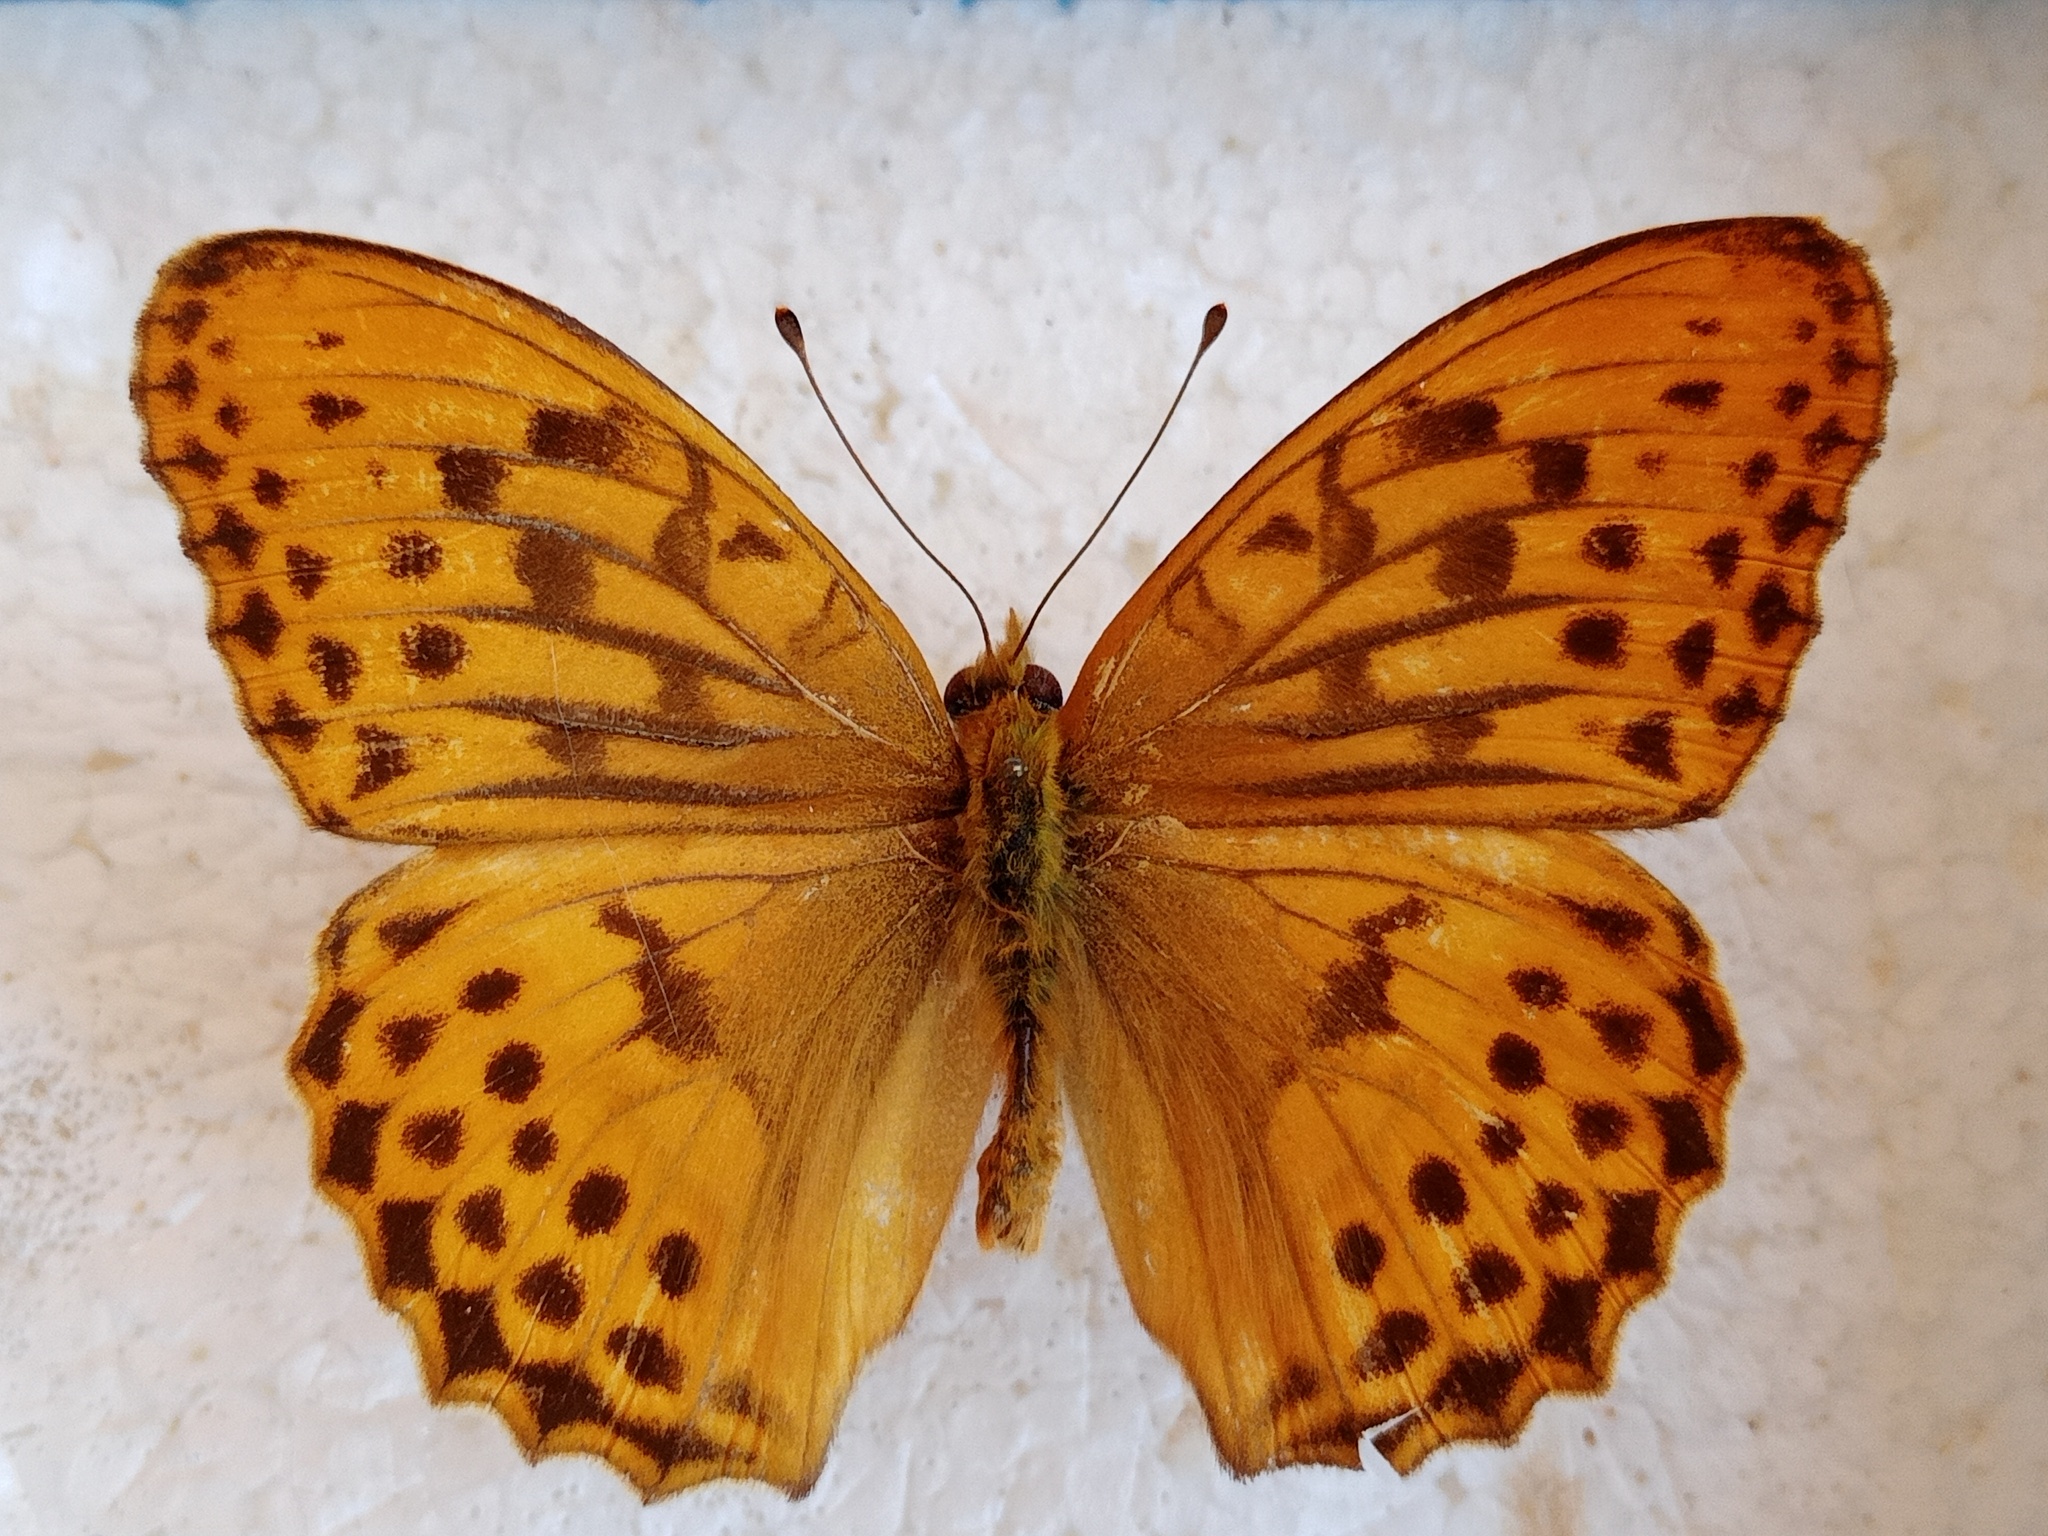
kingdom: Animalia
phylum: Arthropoda
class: Insecta
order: Lepidoptera
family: Nymphalidae
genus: Damora
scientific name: Damora sagana
